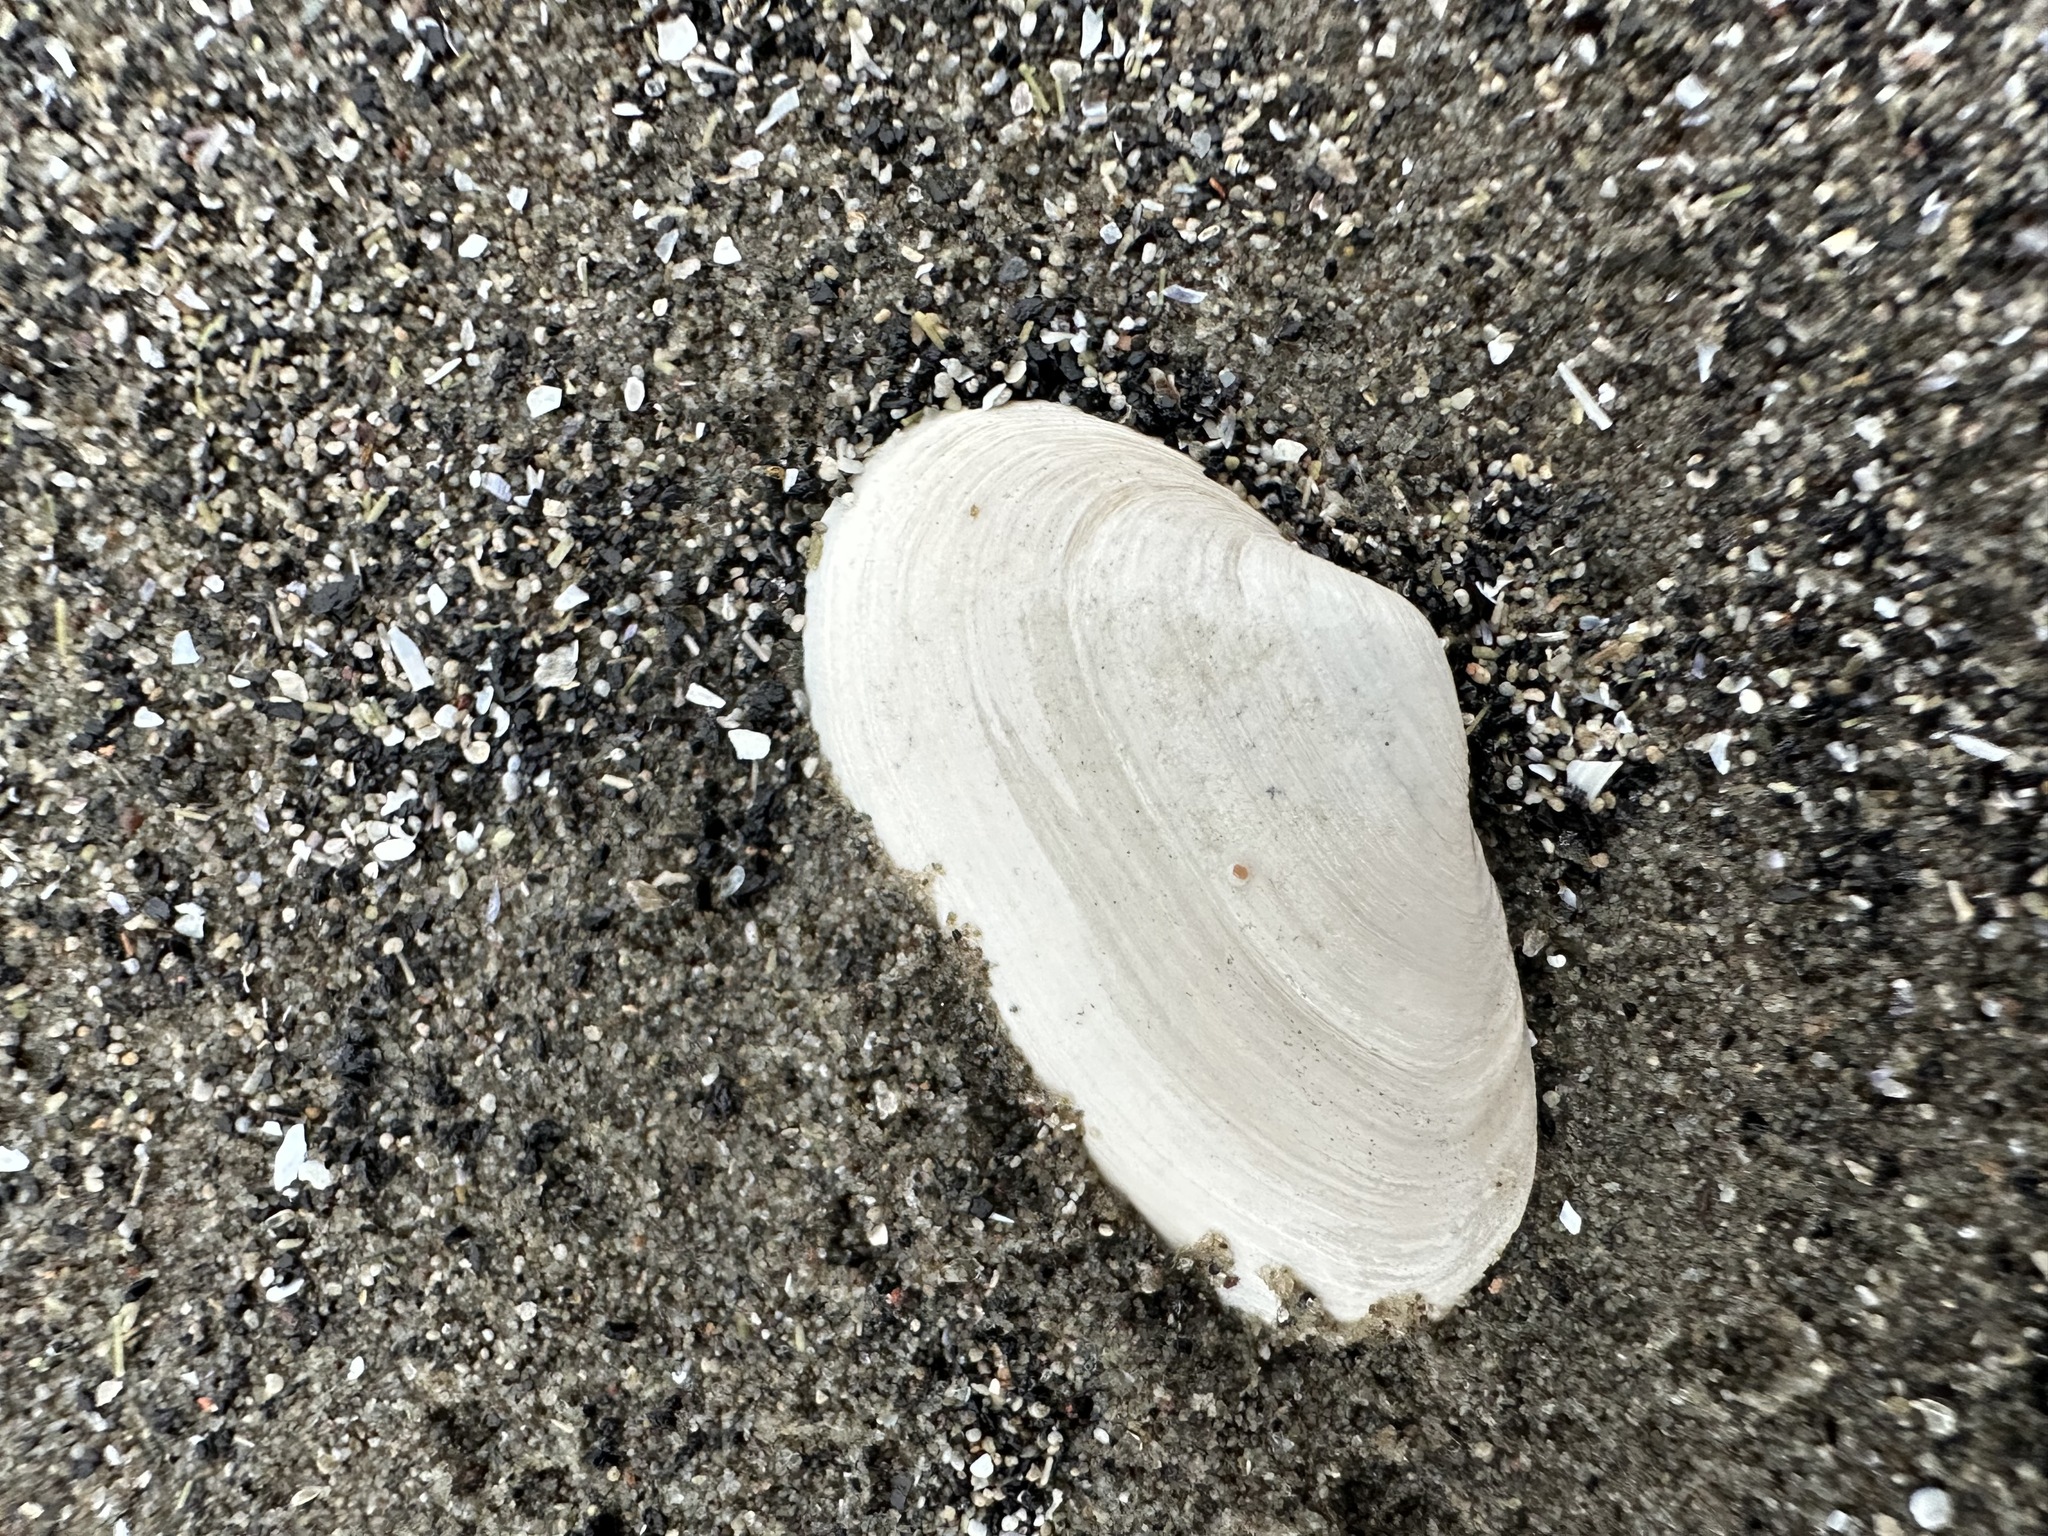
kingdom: Animalia
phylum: Mollusca
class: Bivalvia
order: Myida
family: Myidae
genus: Mya
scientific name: Mya arenaria
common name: Soft-shelled clam
